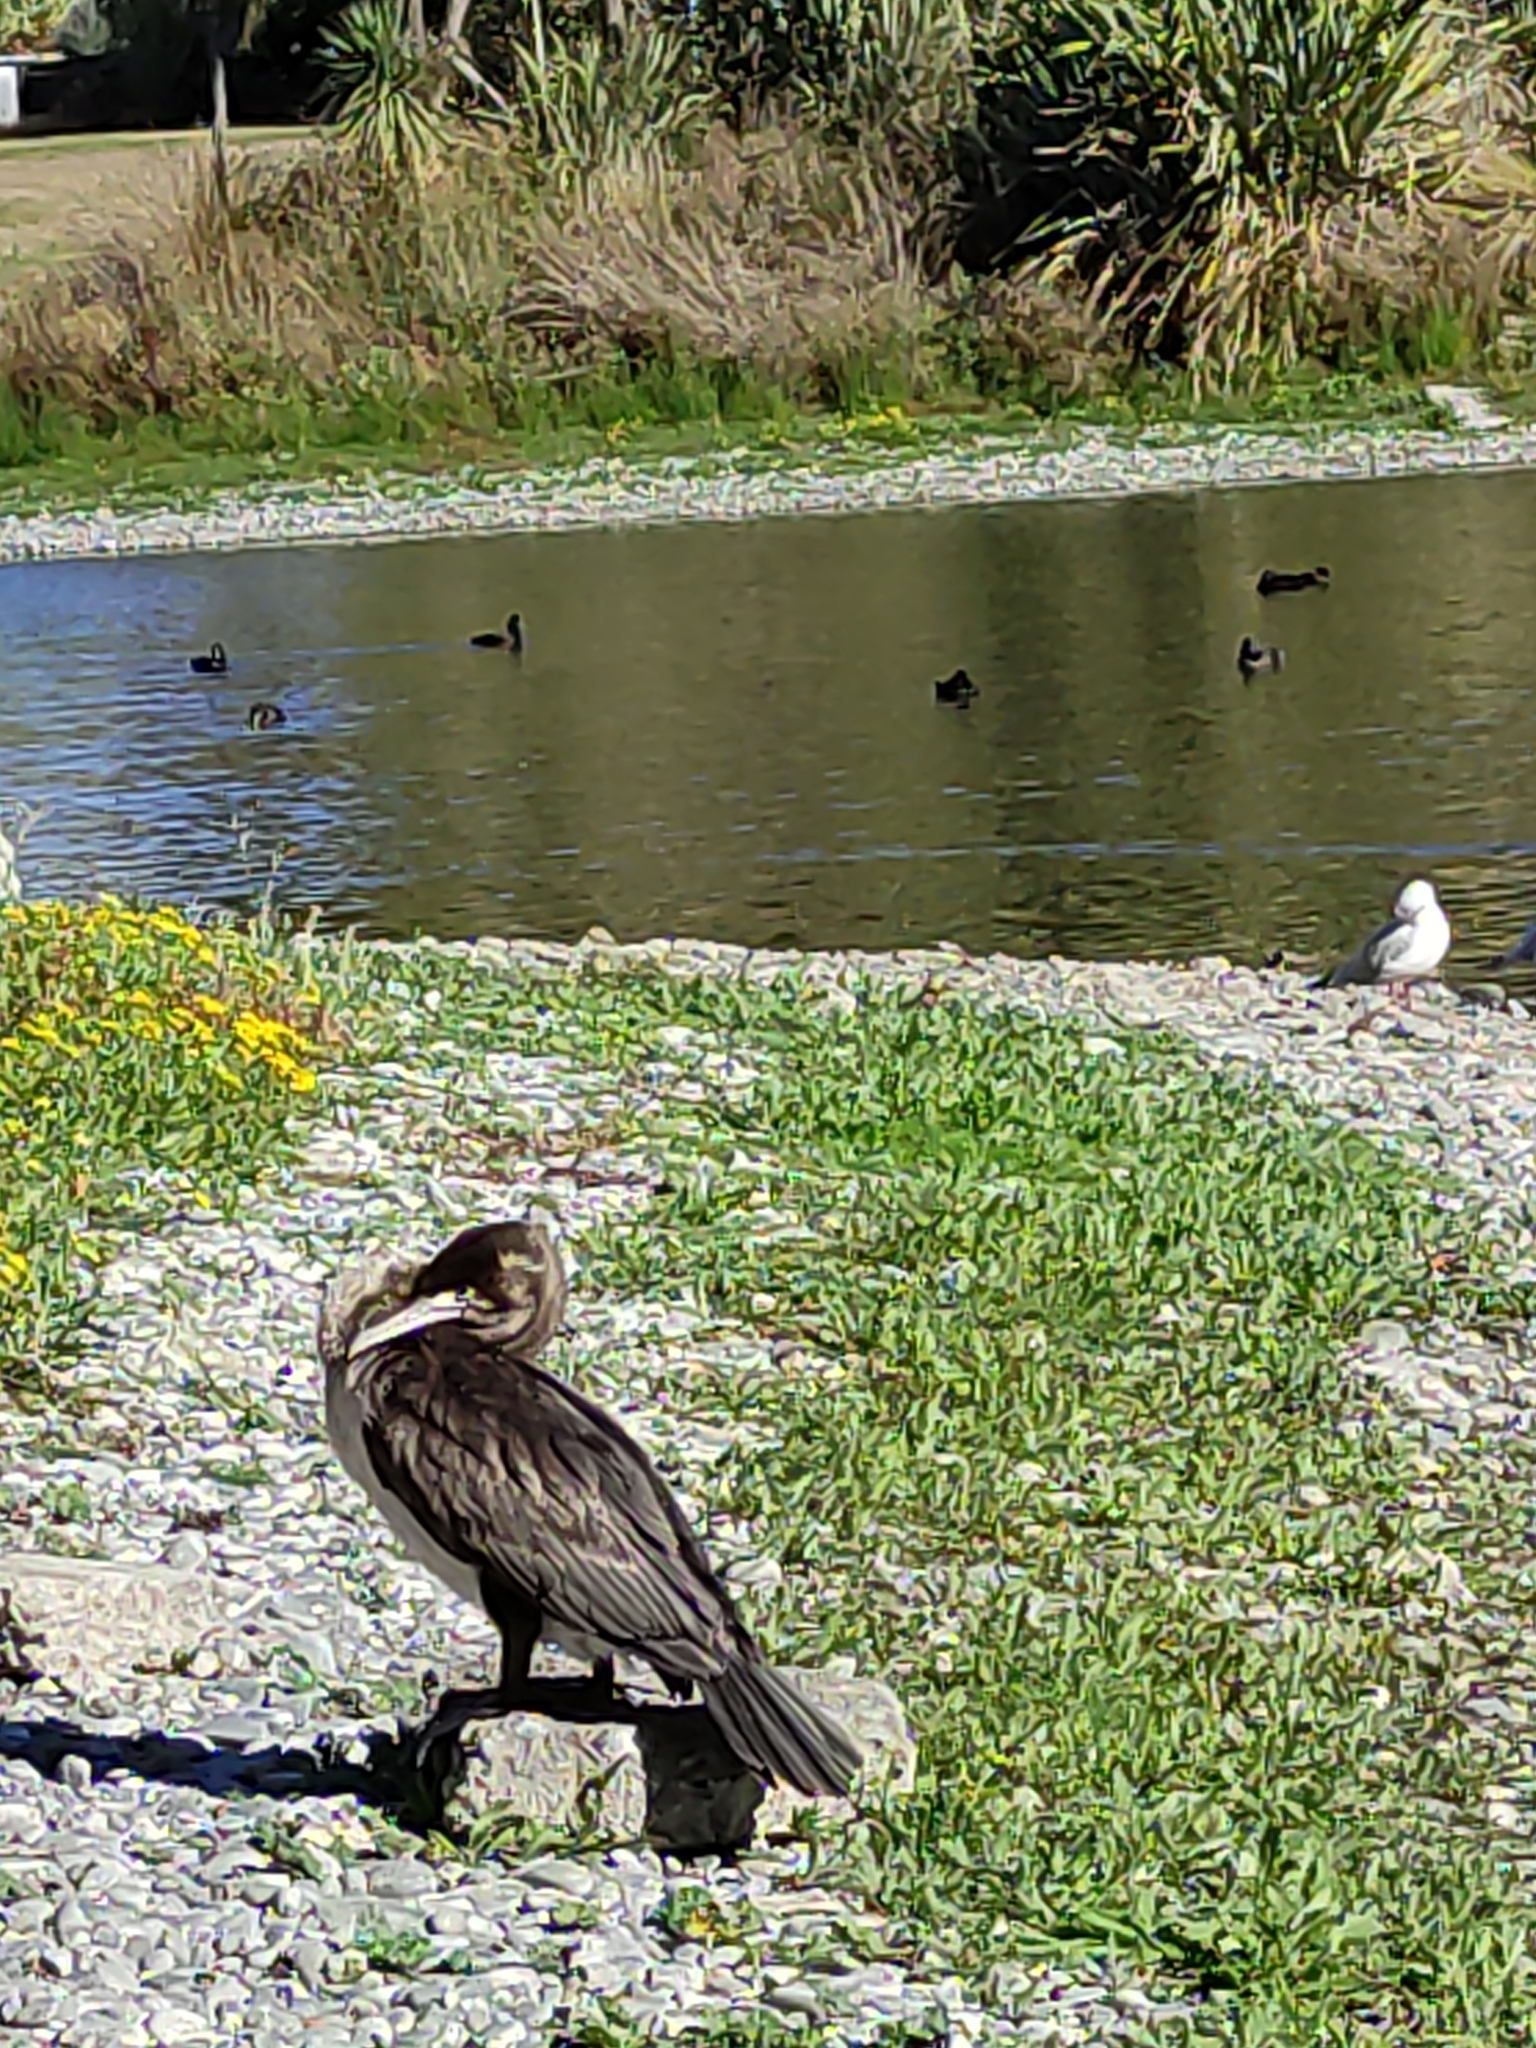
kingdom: Animalia
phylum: Chordata
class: Aves
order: Suliformes
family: Phalacrocoracidae
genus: Phalacrocorax
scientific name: Phalacrocorax varius
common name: Pied cormorant
